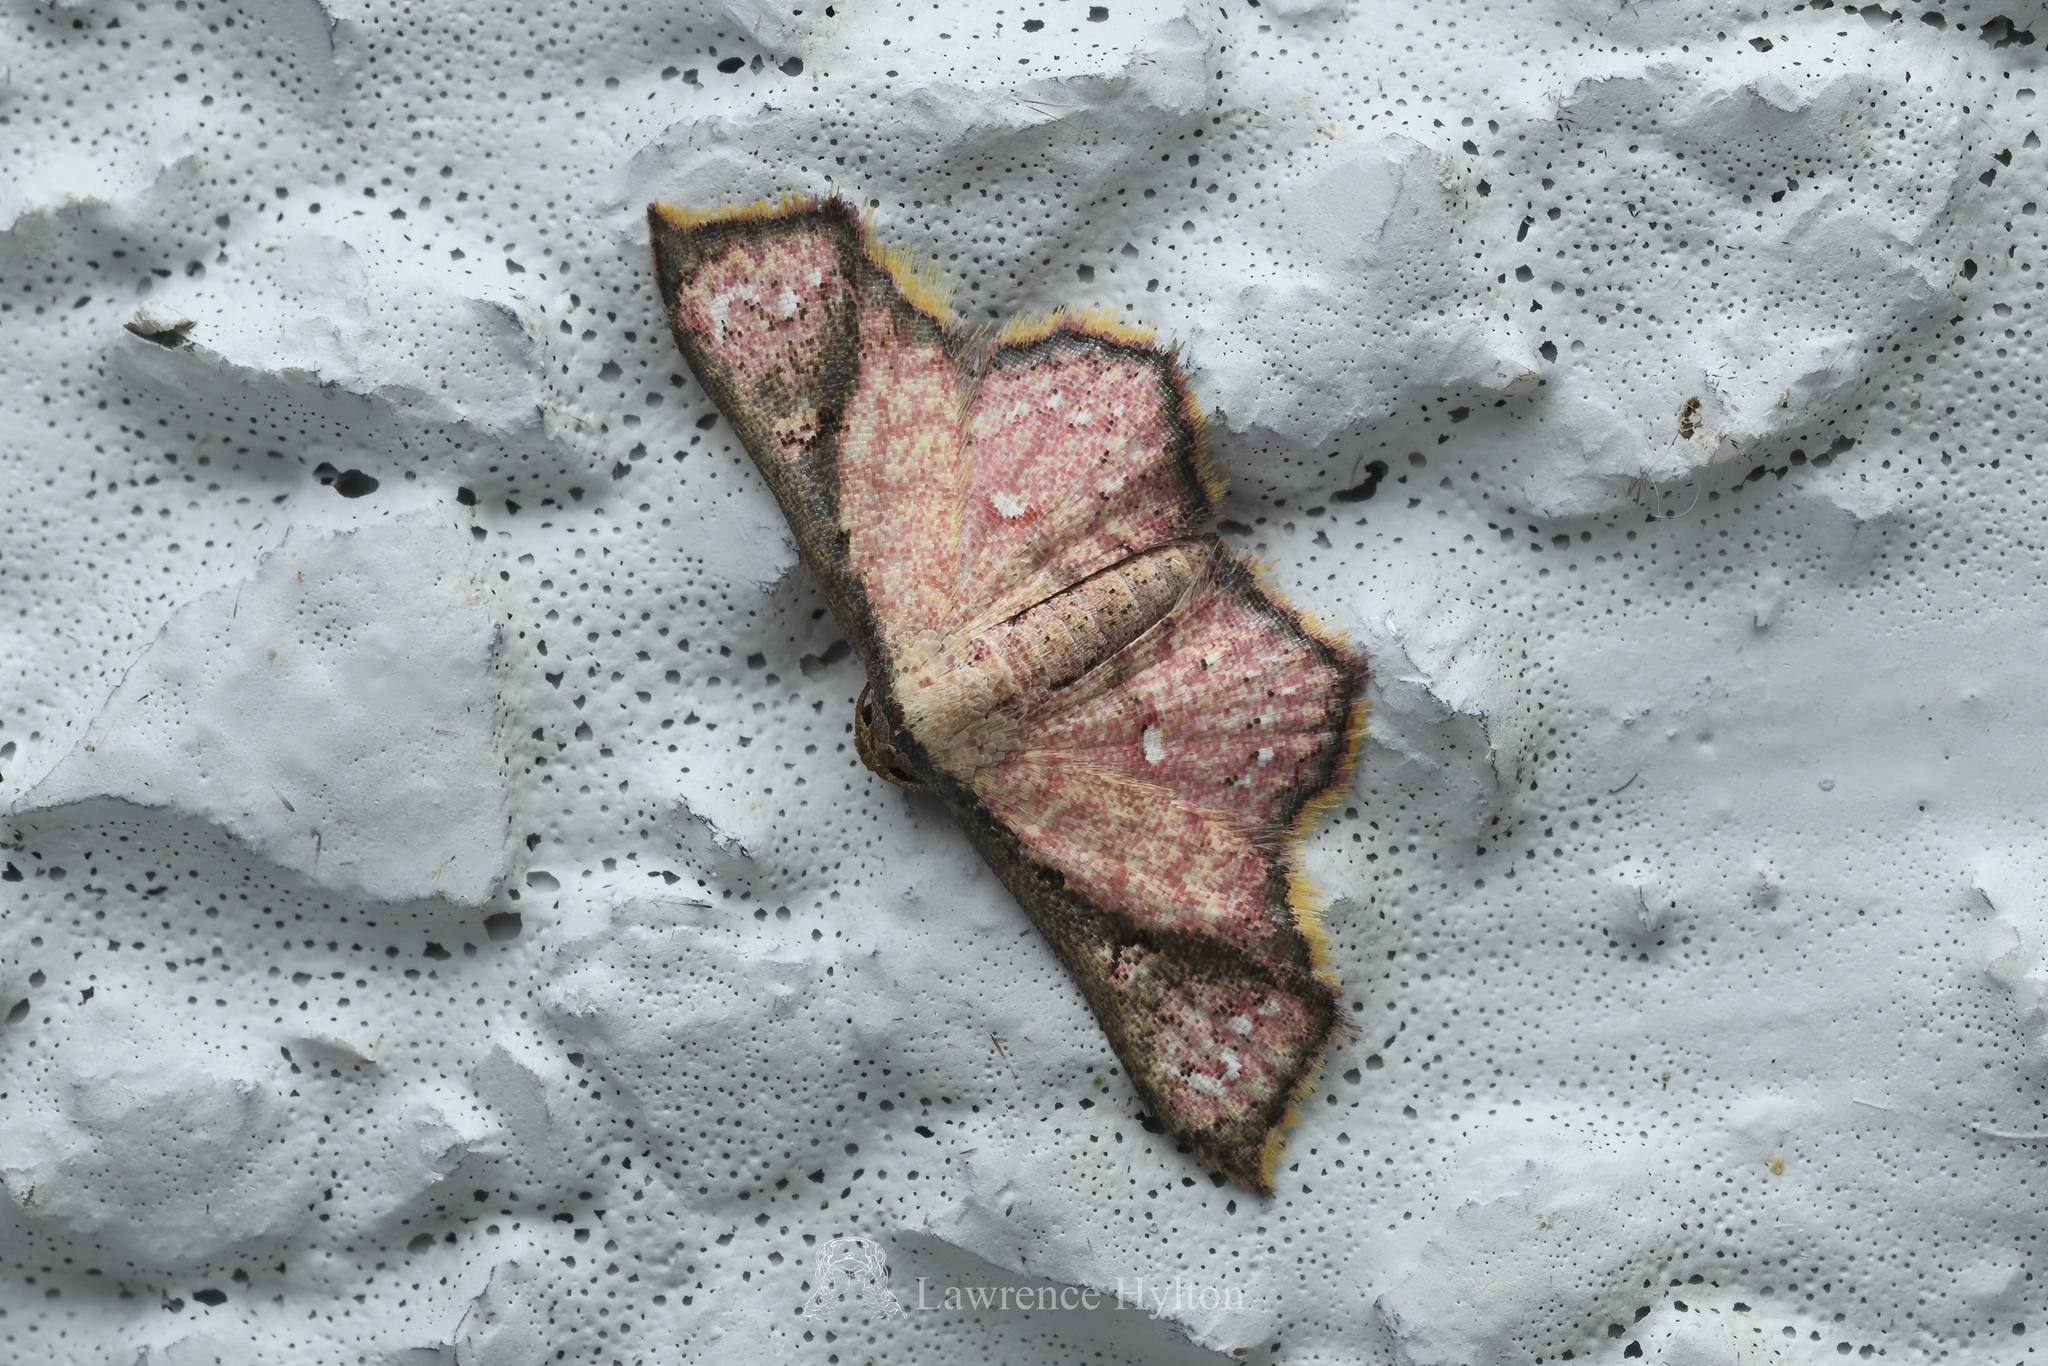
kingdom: Animalia
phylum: Arthropoda
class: Insecta
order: Lepidoptera
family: Noctuidae
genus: Enispa
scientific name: Enispa elataria
